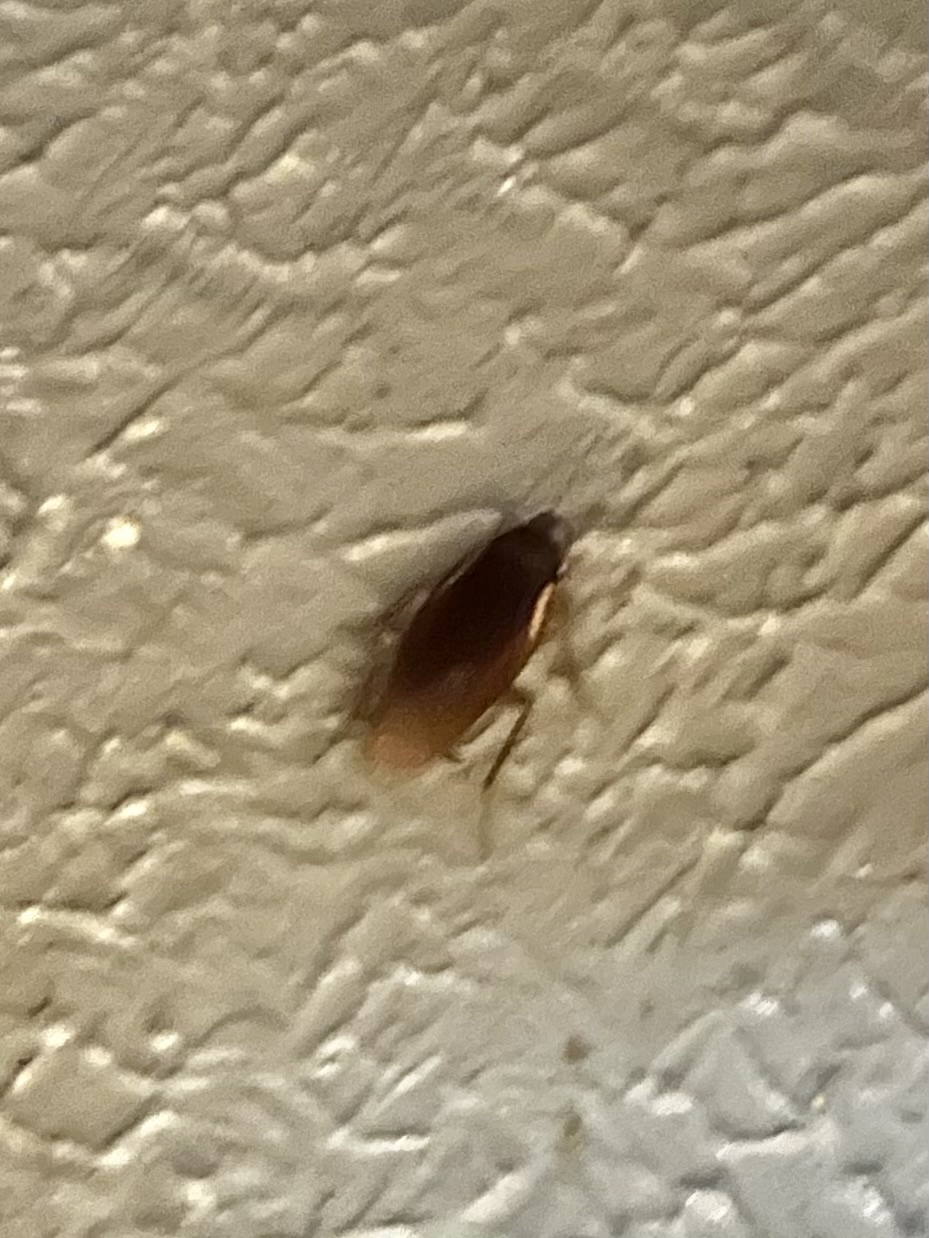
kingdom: Animalia
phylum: Arthropoda
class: Insecta
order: Blattodea
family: Blattidae
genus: Periplaneta
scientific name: Periplaneta australasiae
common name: Australian cockroach
